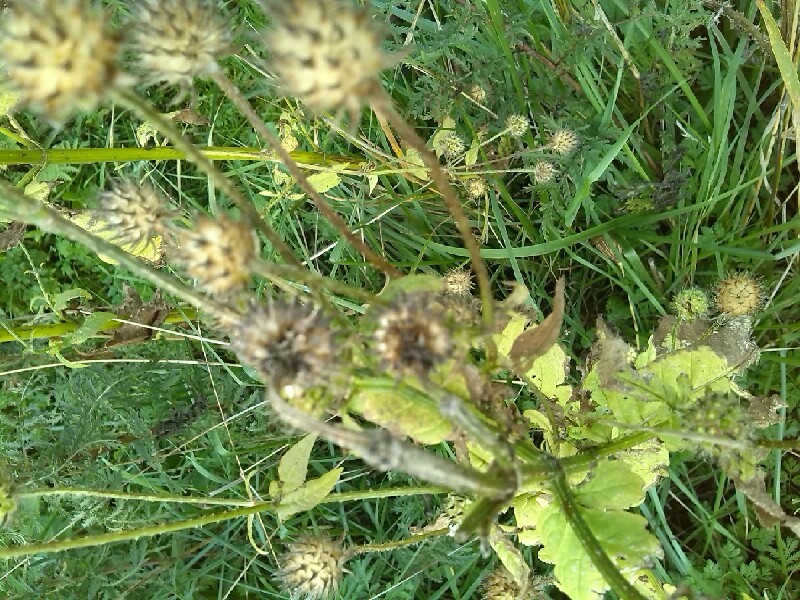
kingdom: Plantae
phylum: Tracheophyta
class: Magnoliopsida
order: Dipsacales
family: Caprifoliaceae
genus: Dipsacus
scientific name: Dipsacus pilosus
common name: Small teasel
